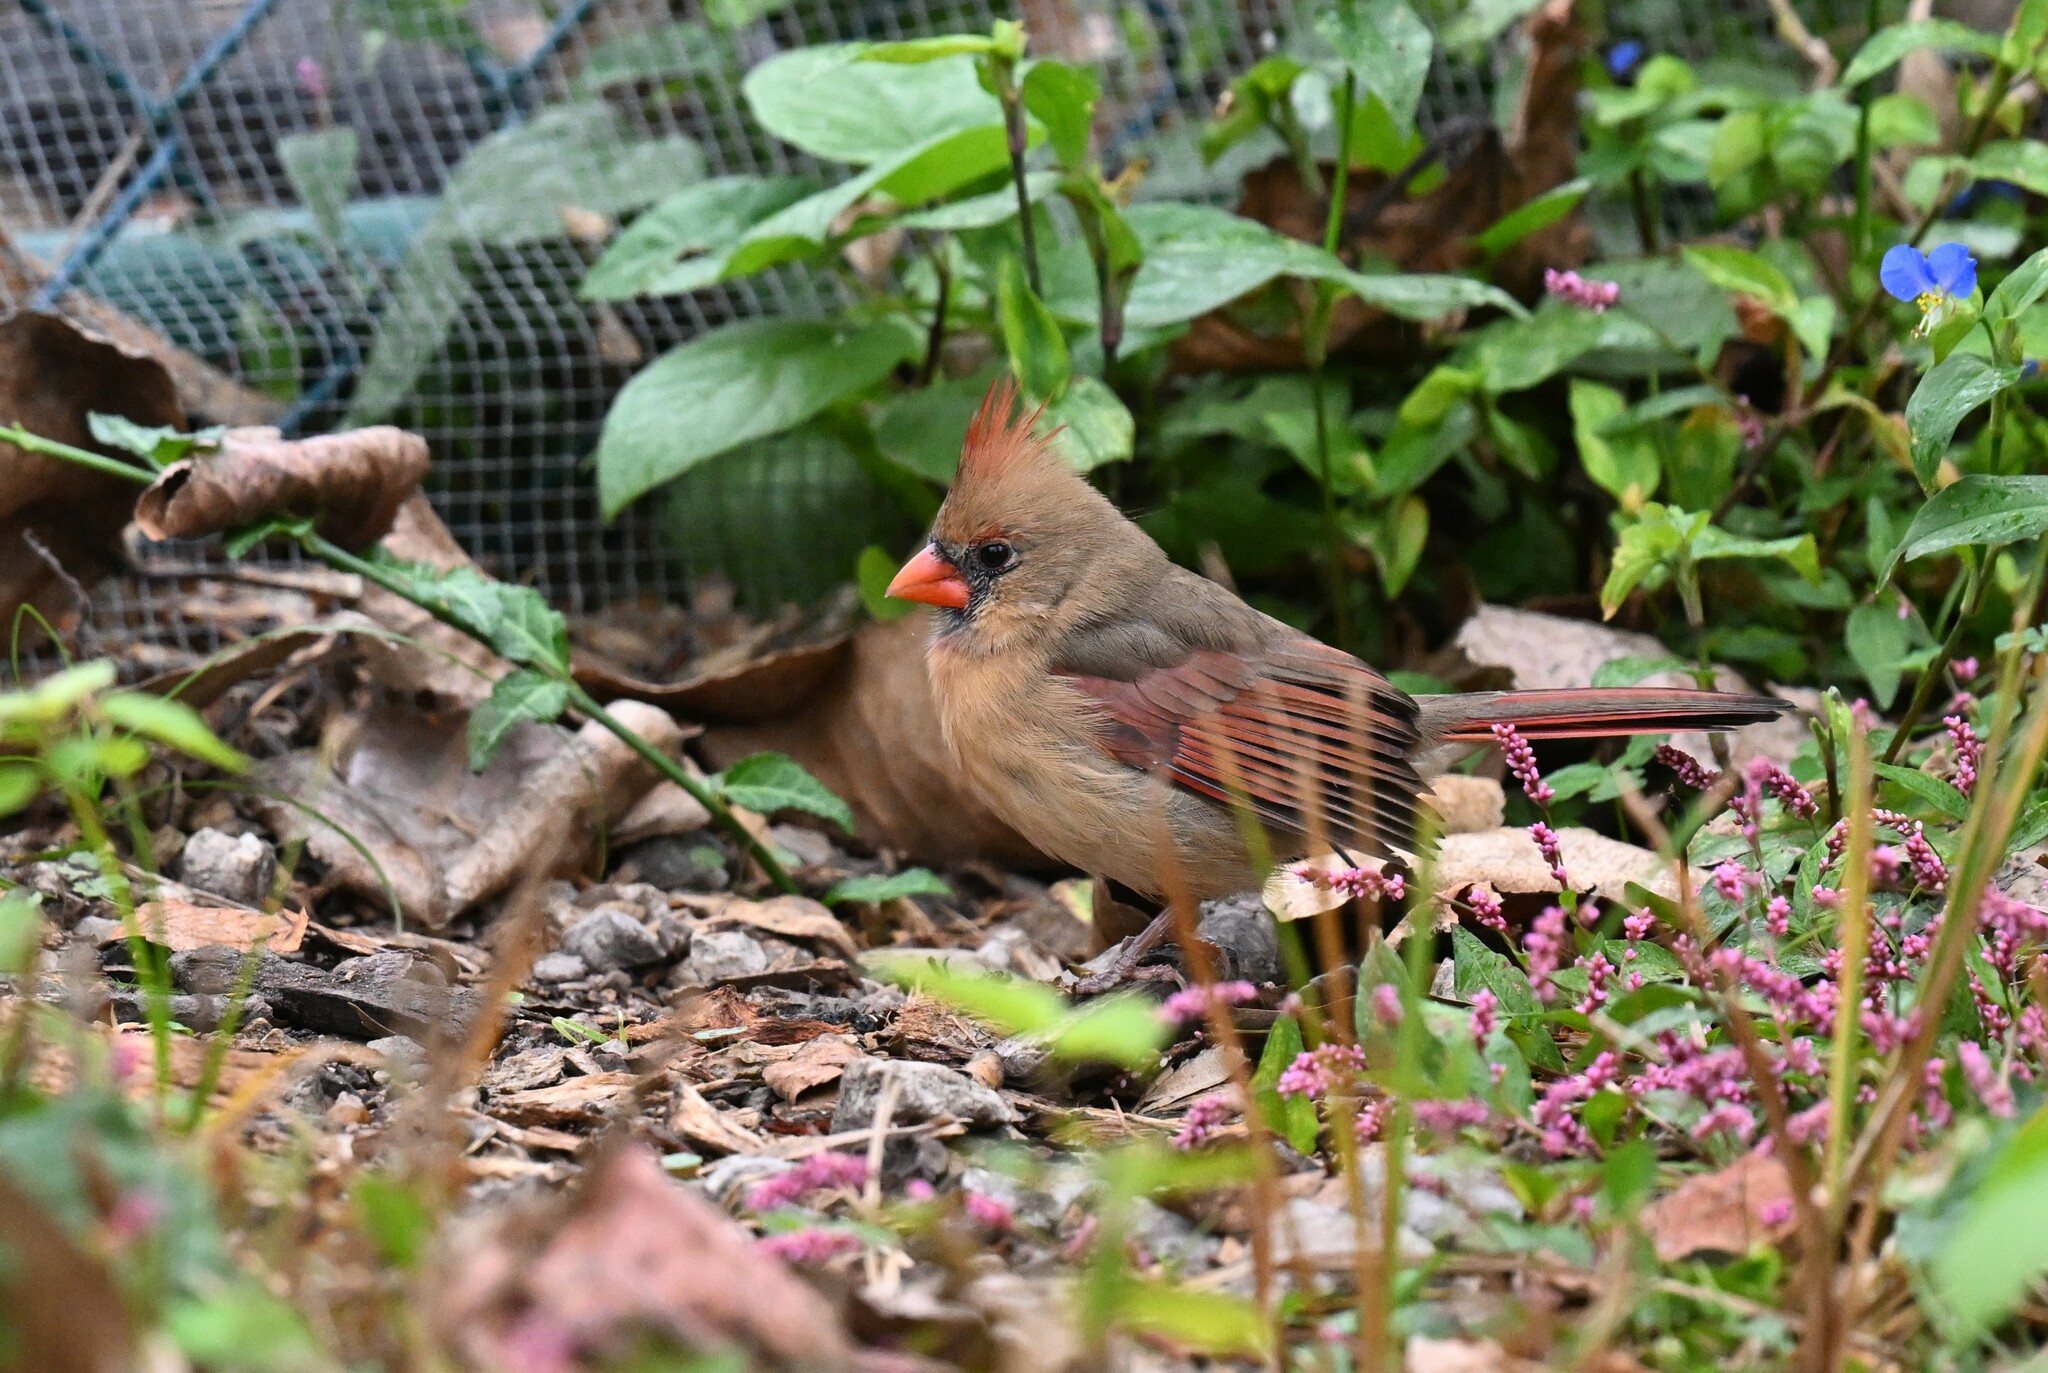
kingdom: Animalia
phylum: Chordata
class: Aves
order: Passeriformes
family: Cardinalidae
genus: Cardinalis
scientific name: Cardinalis cardinalis
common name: Northern cardinal
